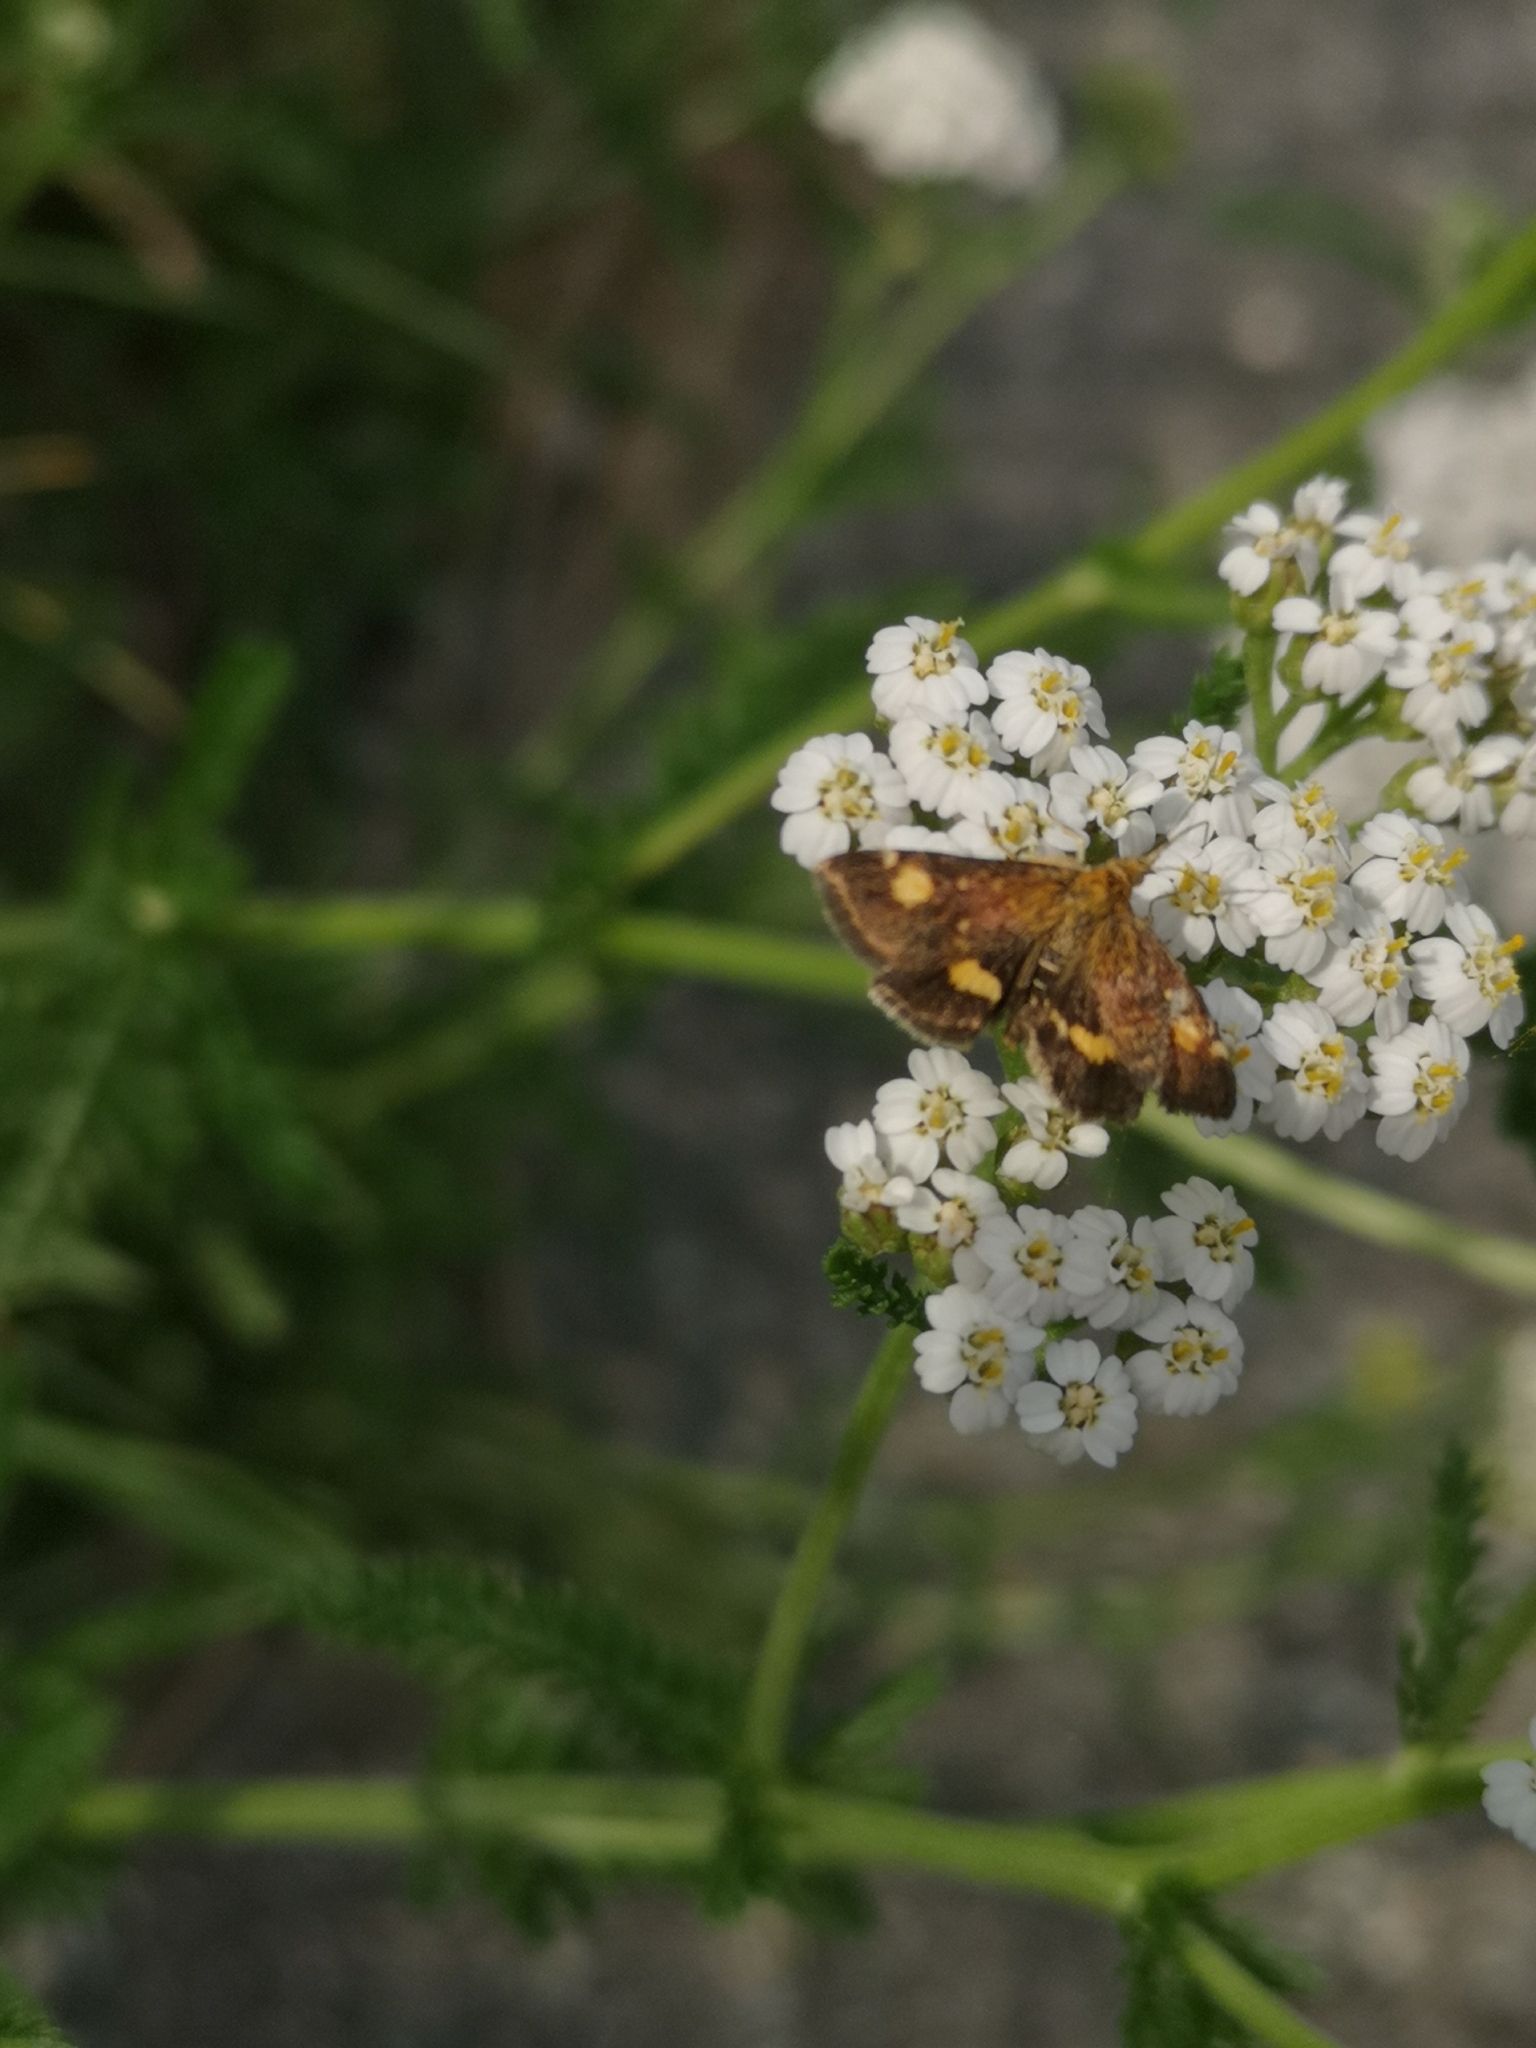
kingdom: Animalia
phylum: Arthropoda
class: Insecta
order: Lepidoptera
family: Crambidae
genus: Pyrausta
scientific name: Pyrausta aurata
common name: Small purple & gold
